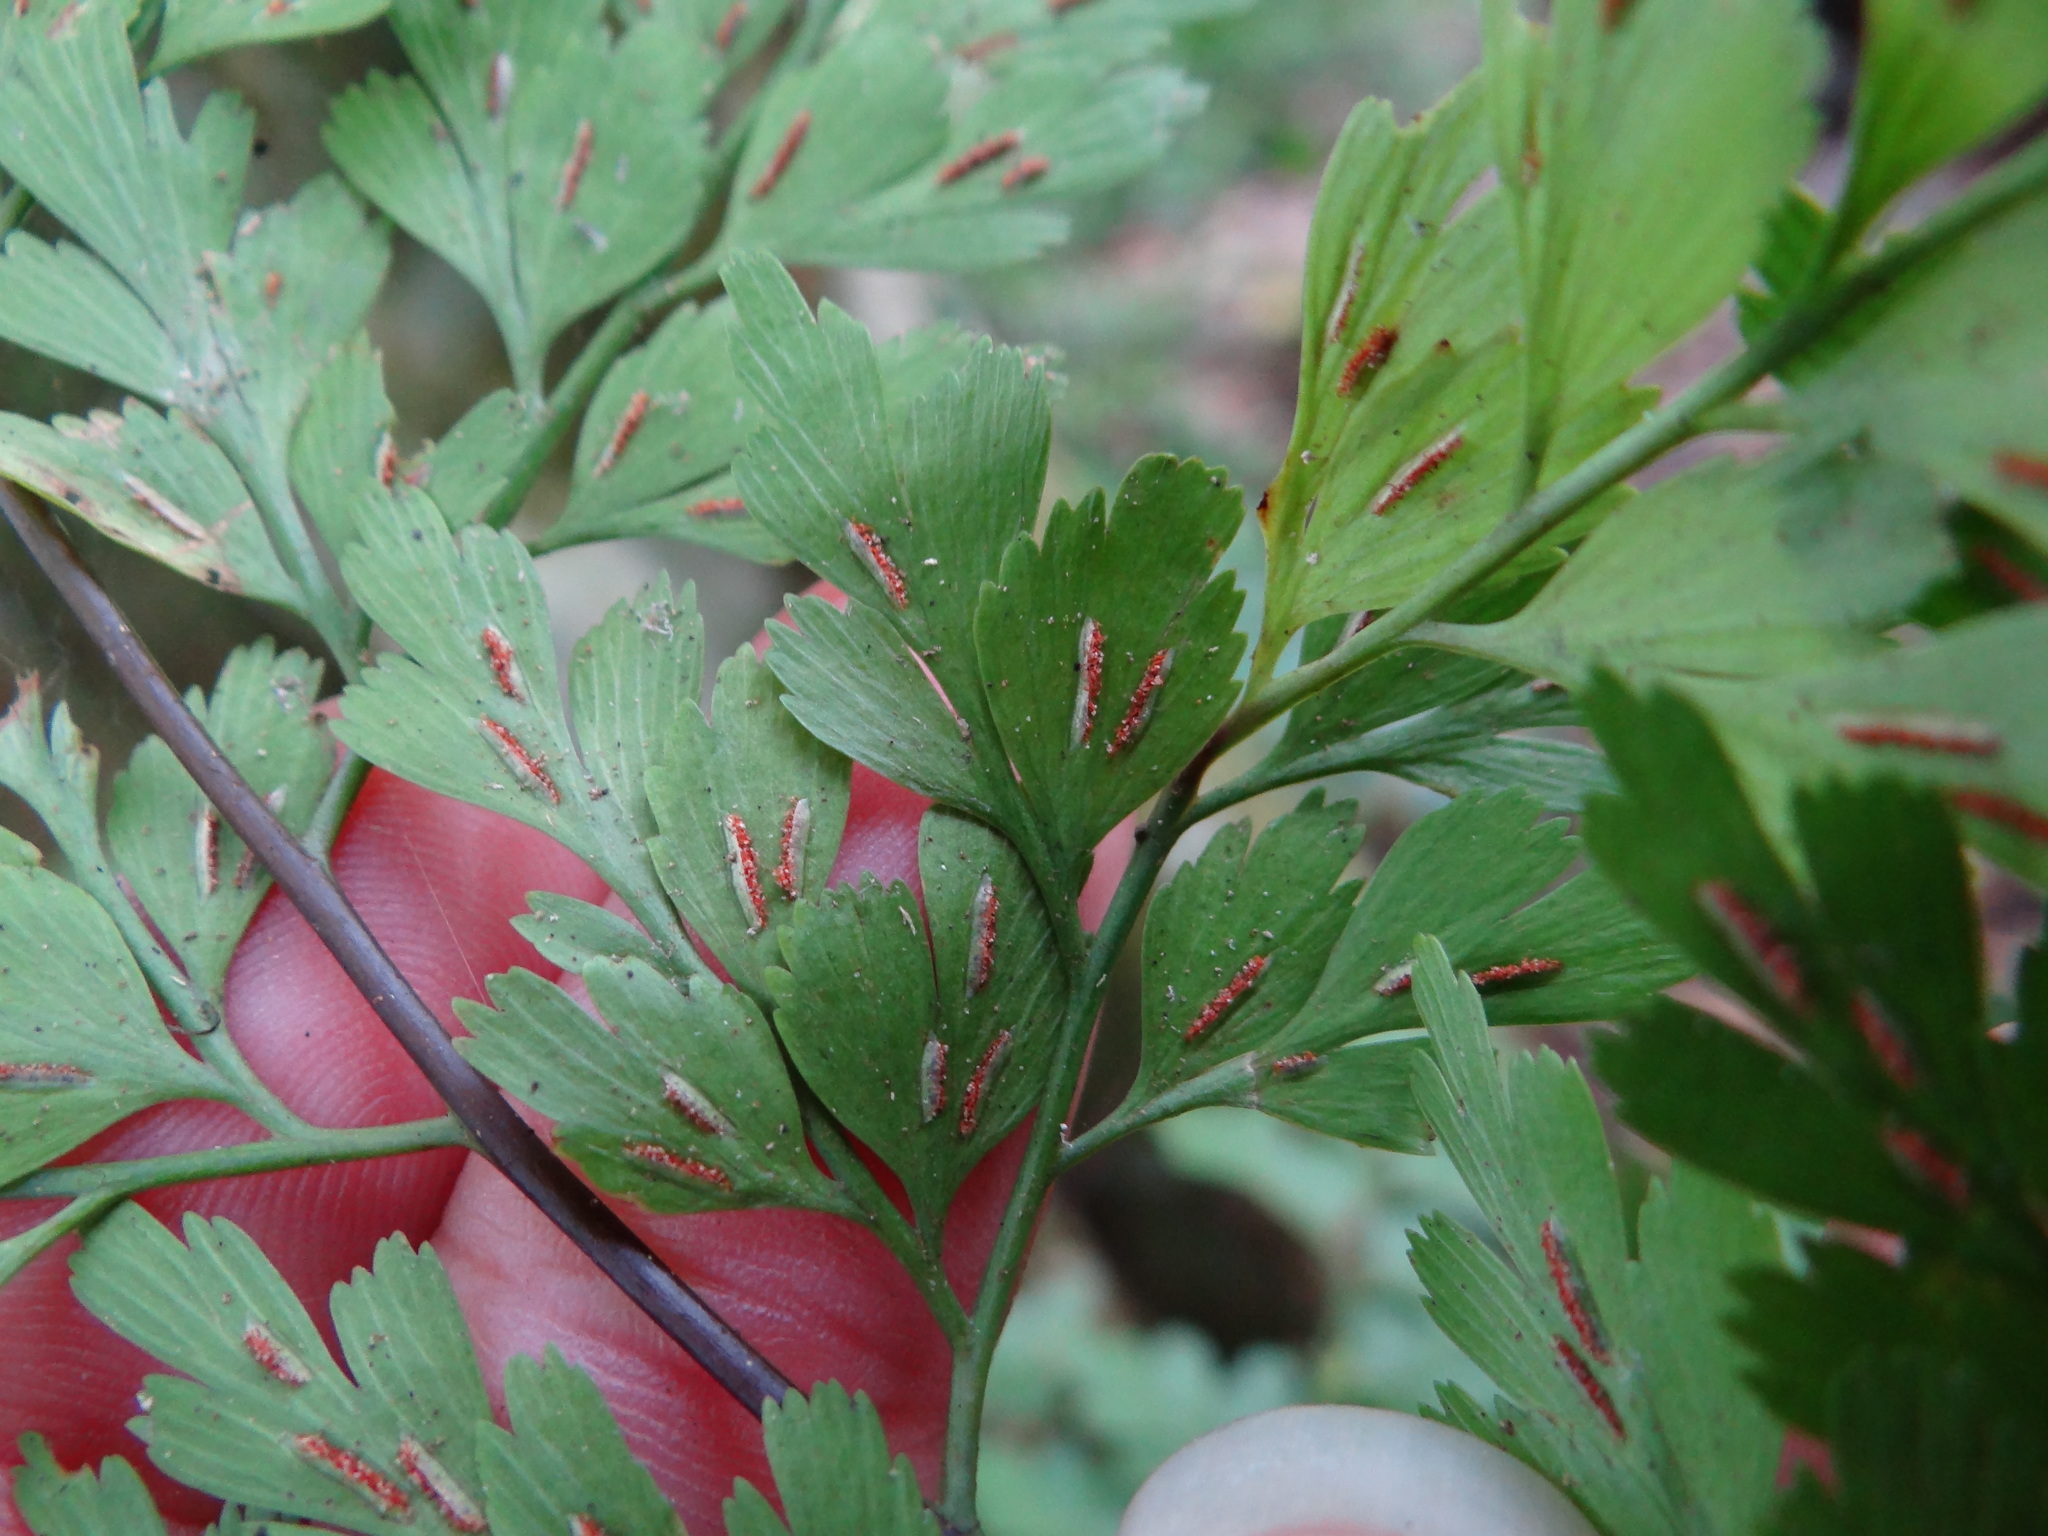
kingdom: Plantae
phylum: Tracheophyta
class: Polypodiopsida
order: Polypodiales
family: Aspleniaceae
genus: Asplenium
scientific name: Asplenium pseudolaserpitiifolium
